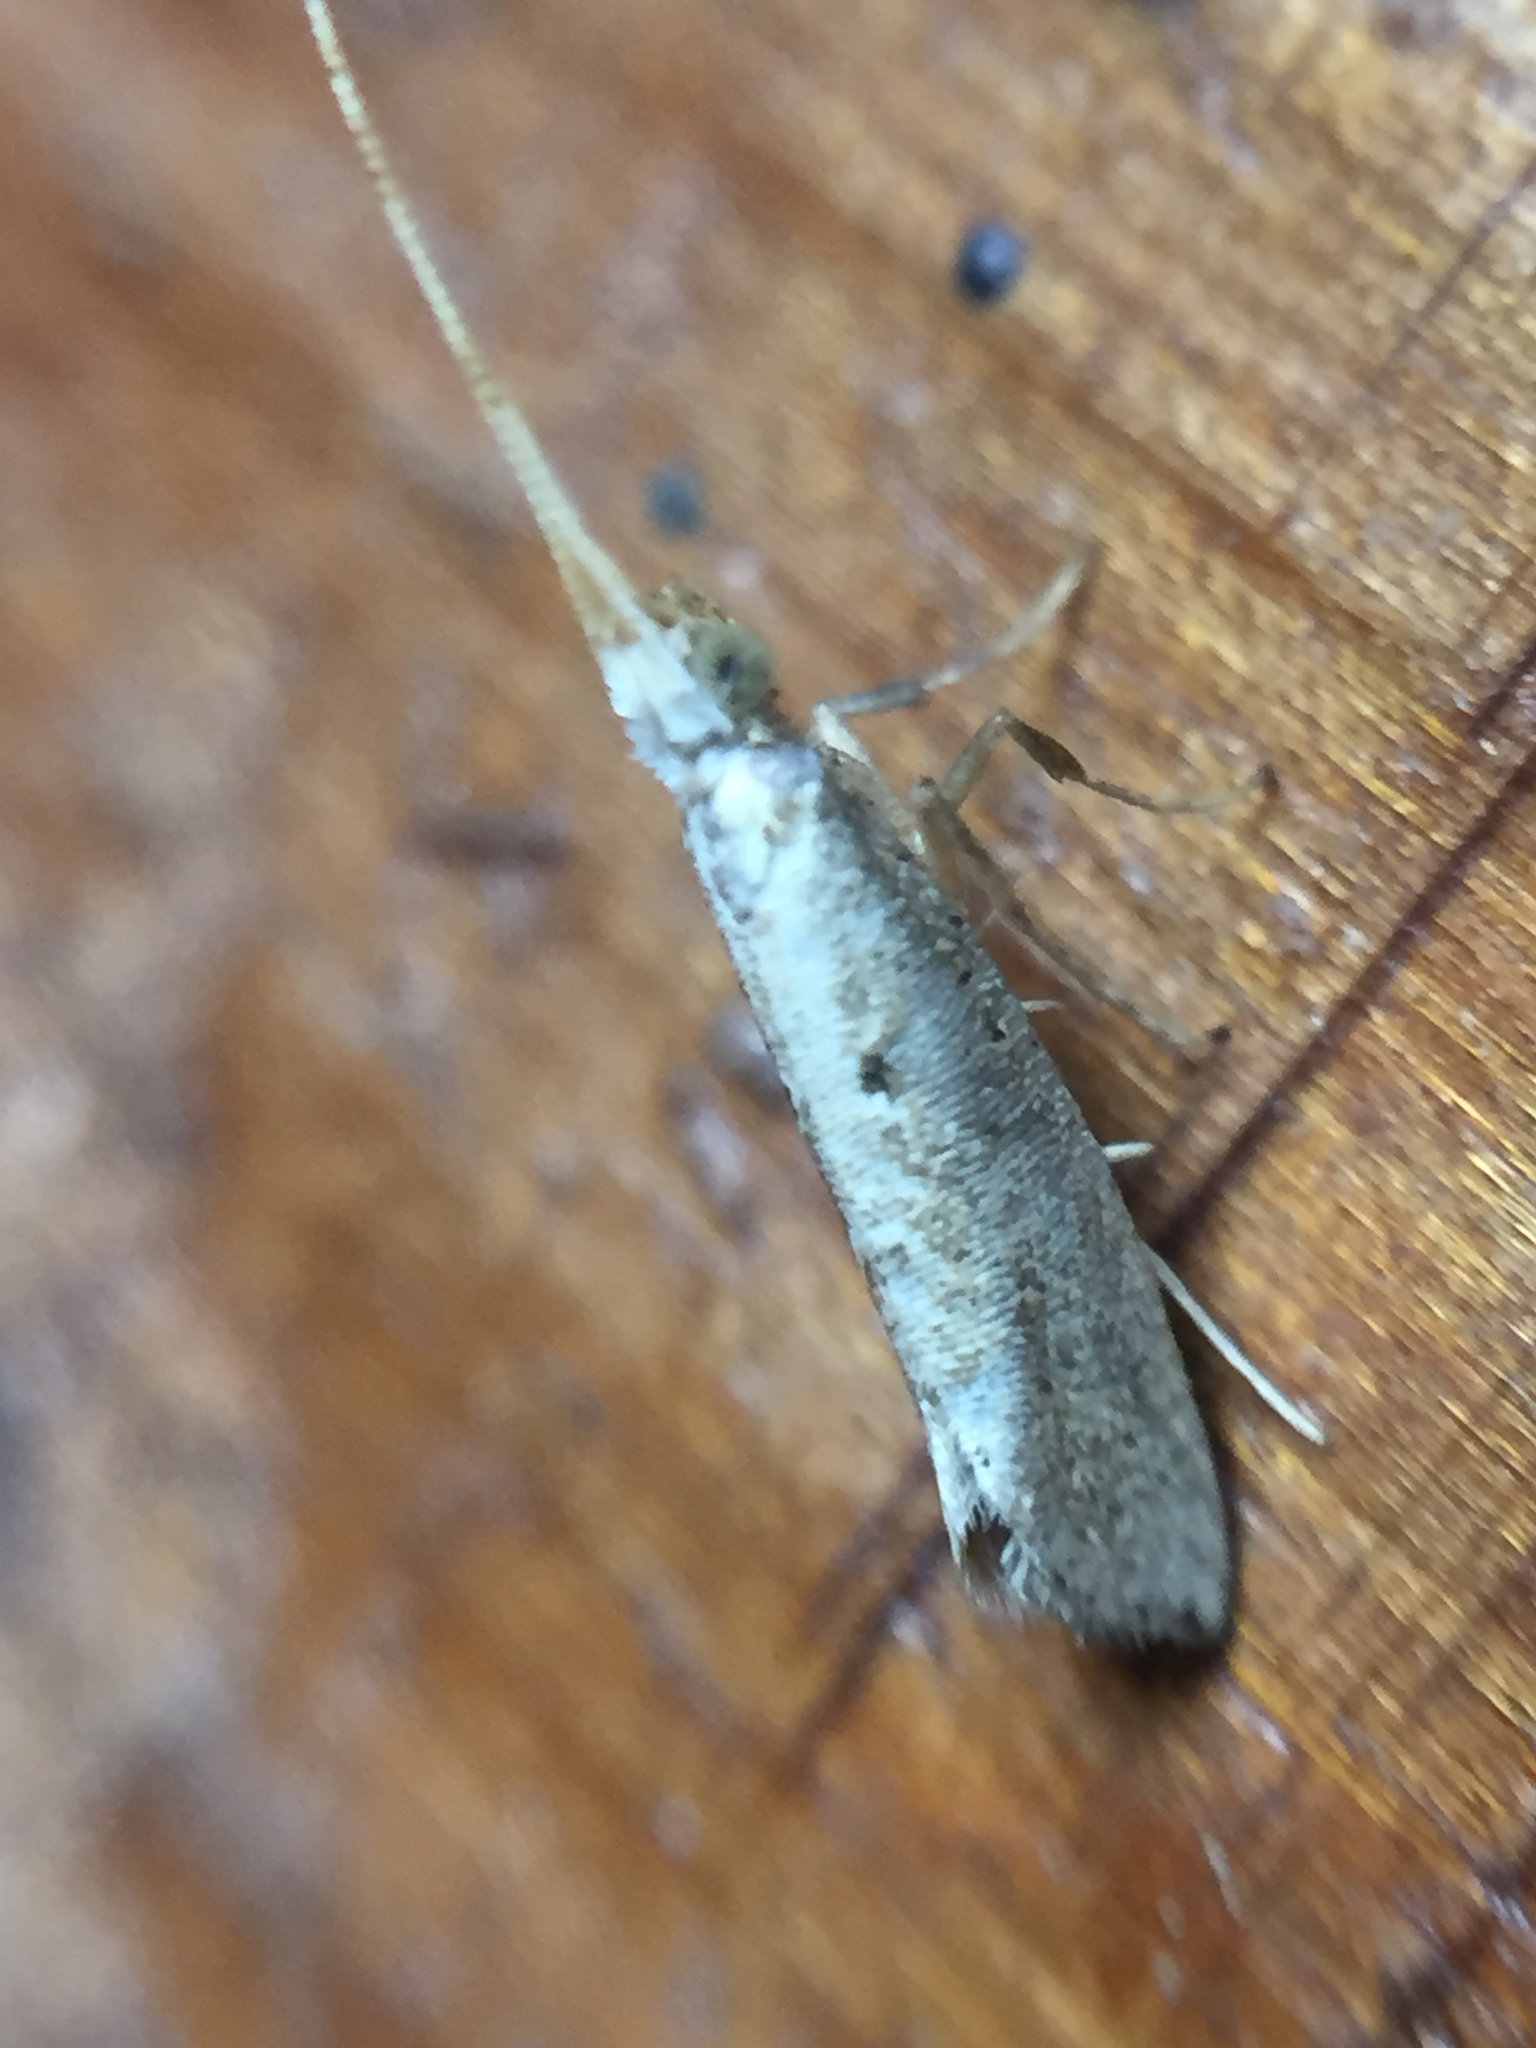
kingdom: Animalia
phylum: Arthropoda
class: Insecta
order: Lepidoptera
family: Plutellidae
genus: Leuroperna
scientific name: Leuroperna sera
